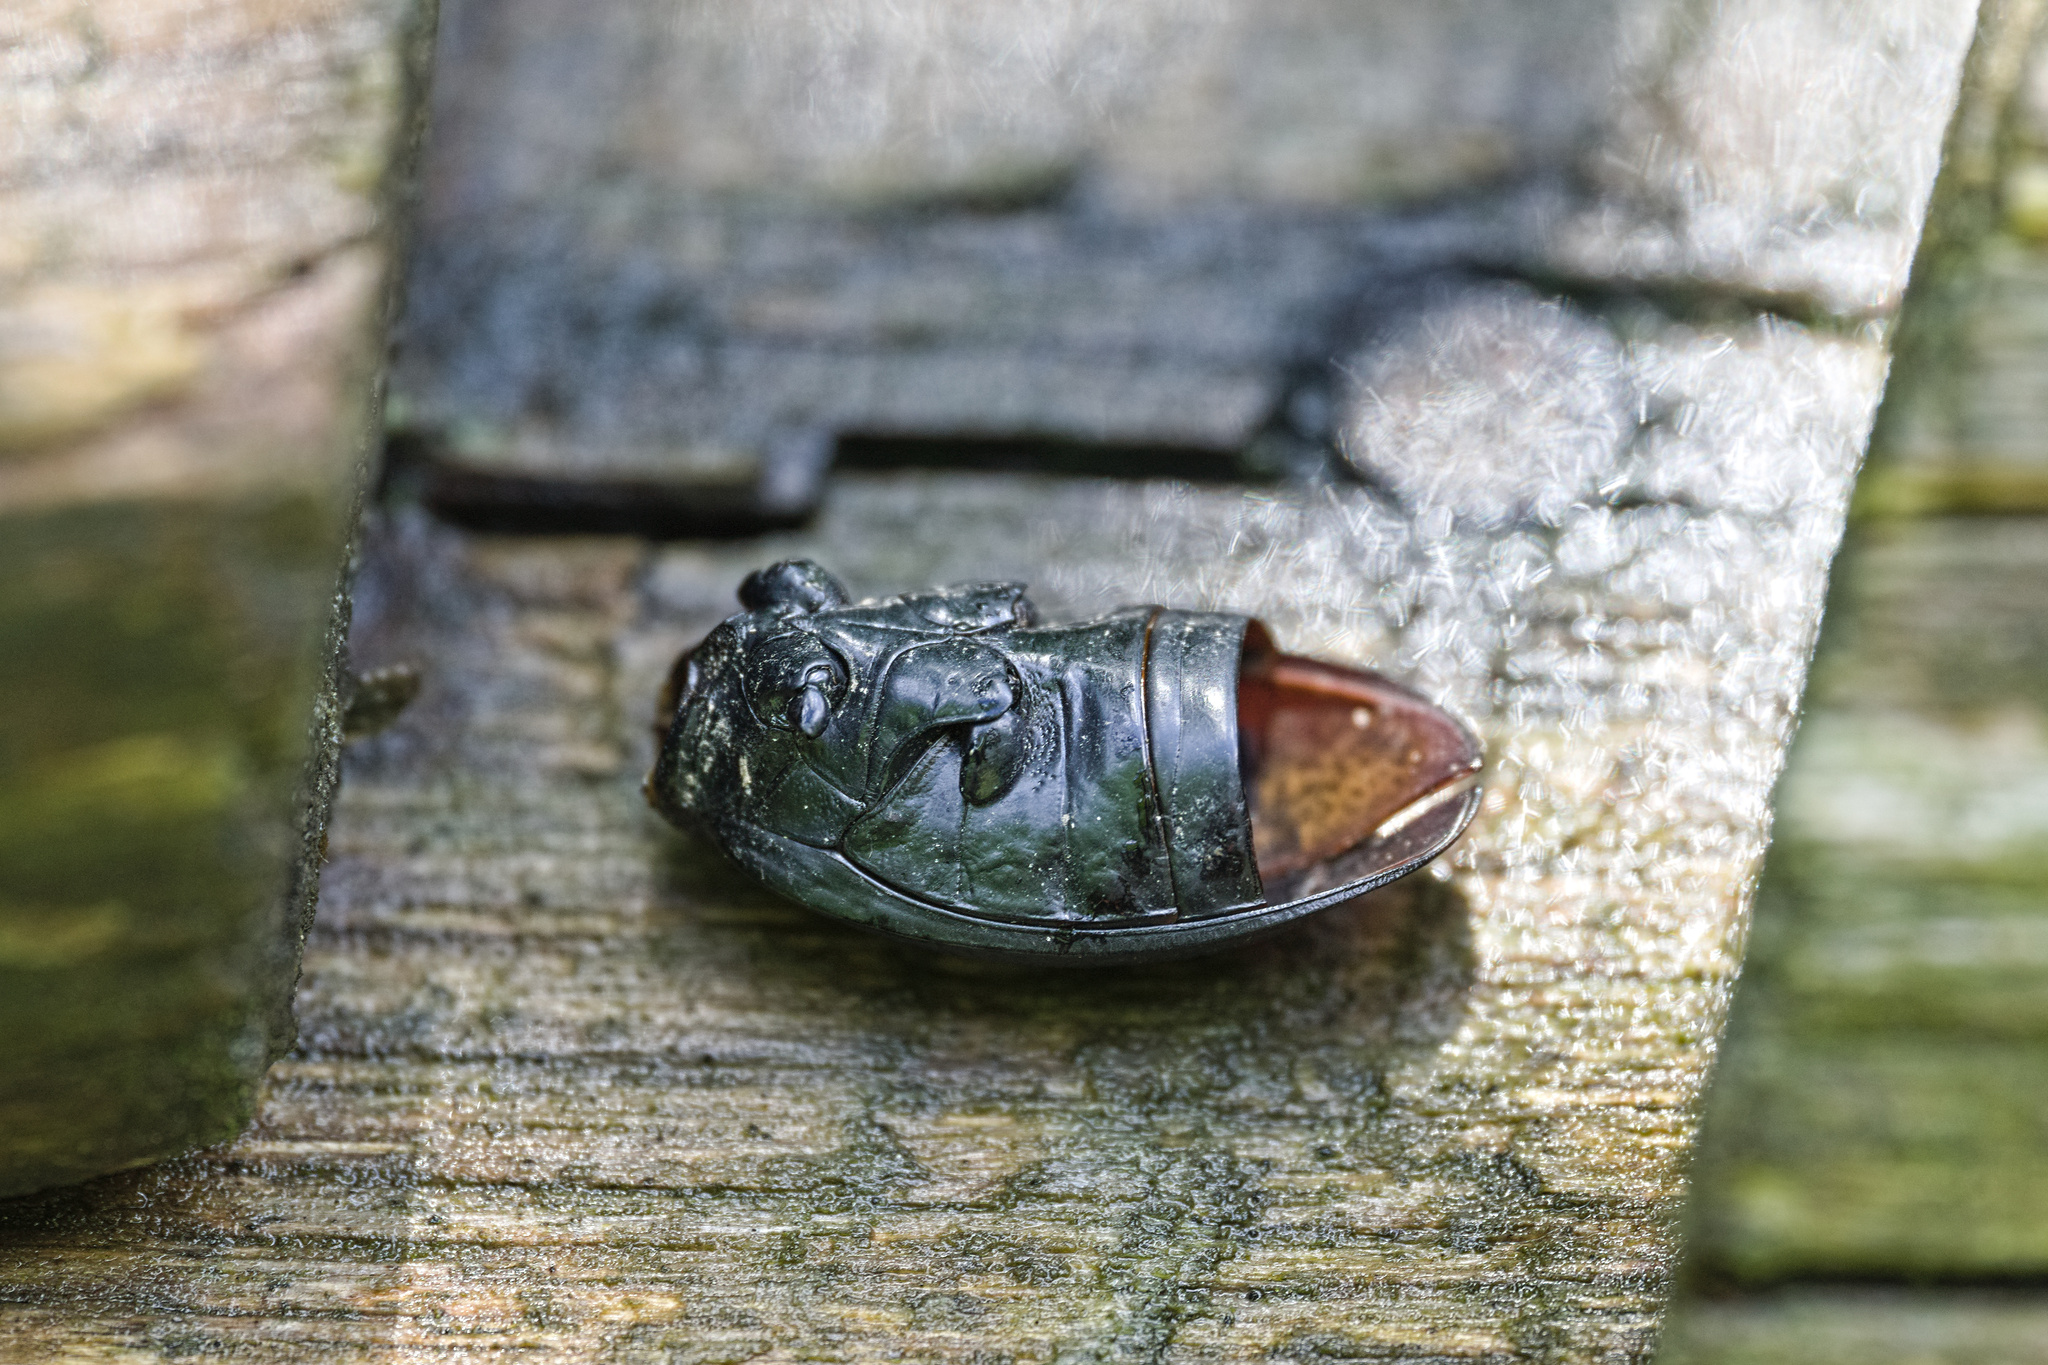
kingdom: Animalia
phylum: Arthropoda
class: Insecta
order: Coleoptera
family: Carabidae
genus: Carabus
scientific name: Carabus coriaceus
